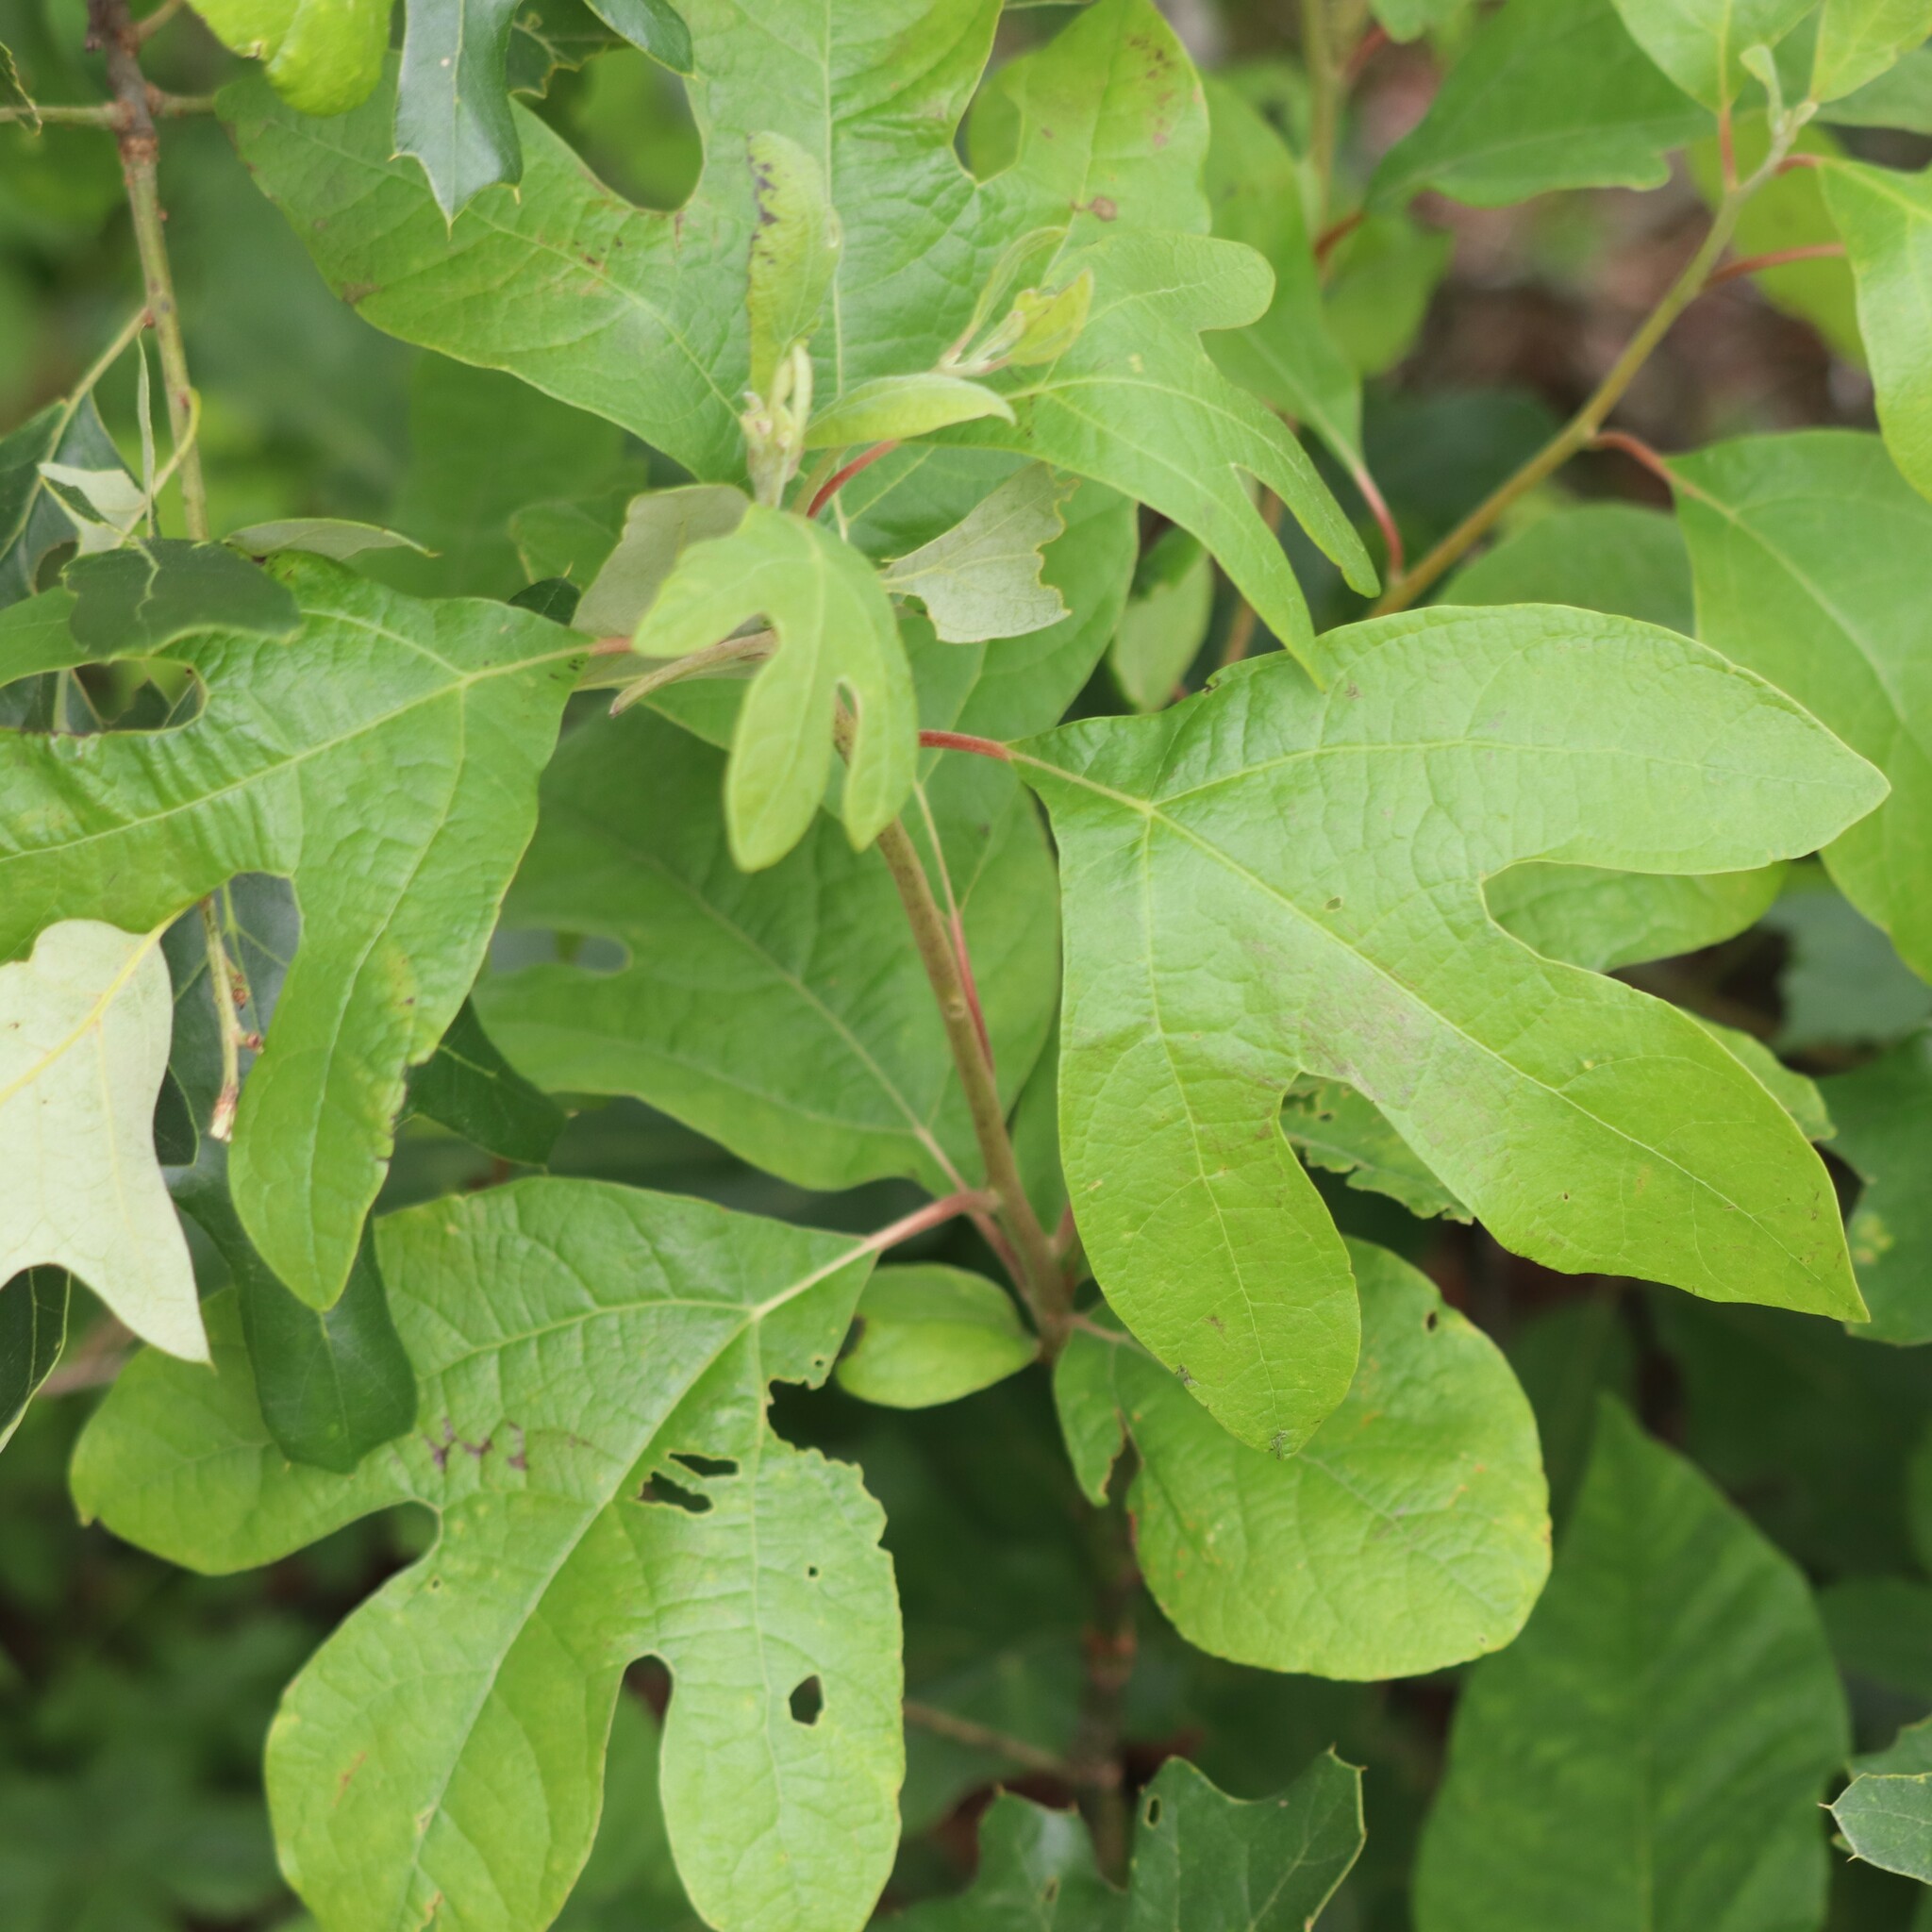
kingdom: Plantae
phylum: Tracheophyta
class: Magnoliopsida
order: Laurales
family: Lauraceae
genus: Sassafras
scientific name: Sassafras albidum
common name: Sassafras
